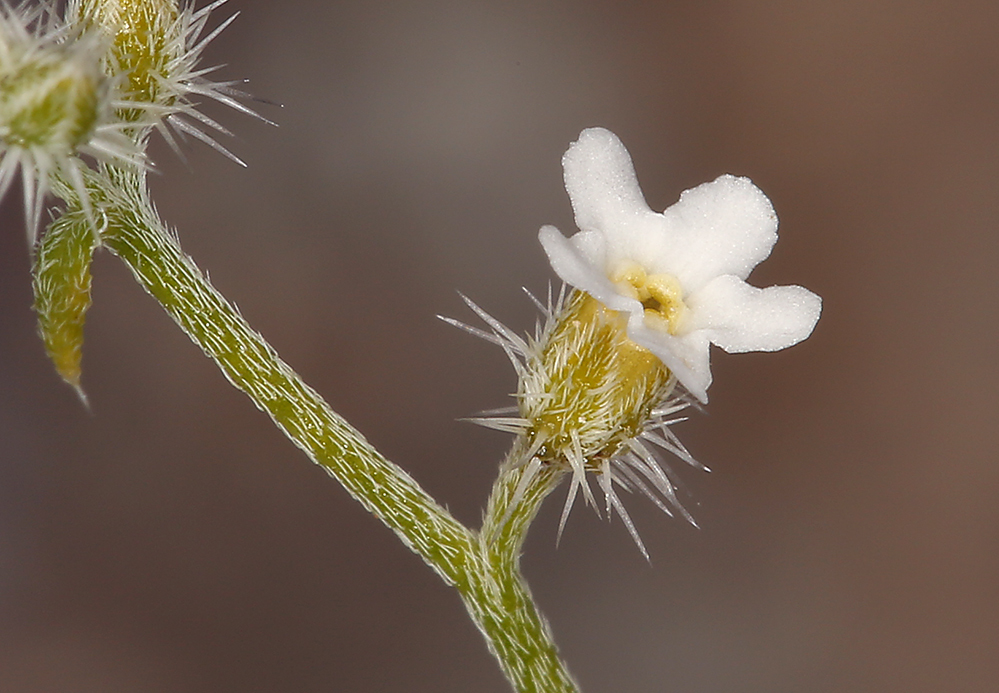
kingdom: Plantae
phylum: Tracheophyta
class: Magnoliopsida
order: Boraginales
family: Boraginaceae
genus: Johnstonella
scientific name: Johnstonella racemosa
